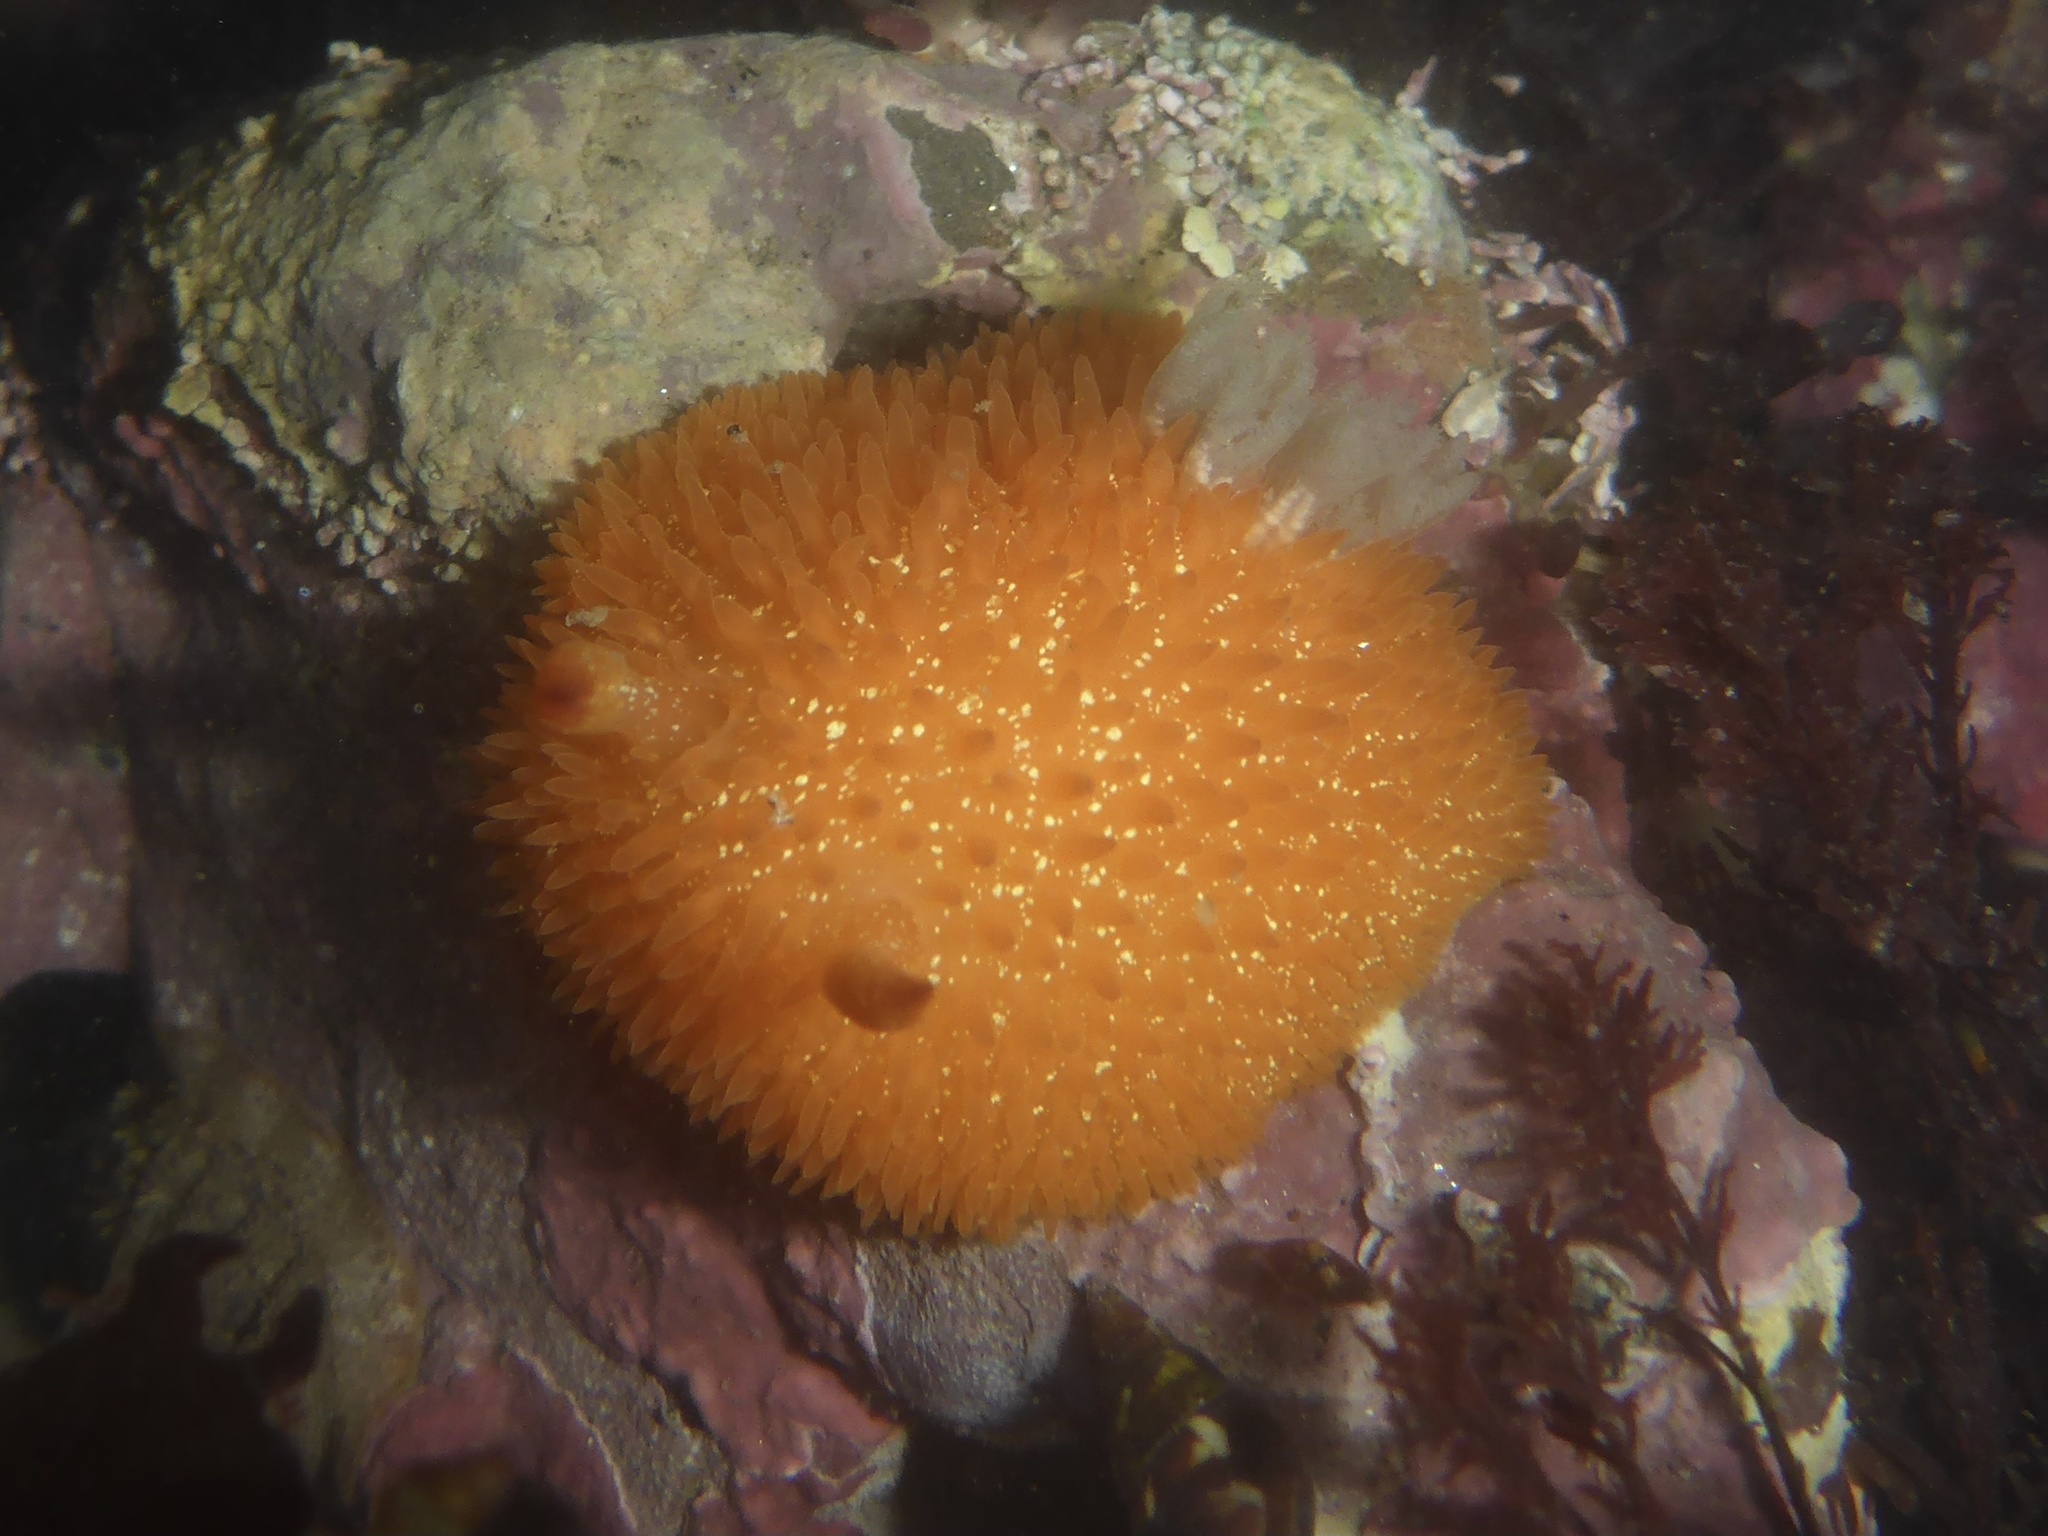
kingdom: Animalia
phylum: Mollusca
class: Gastropoda
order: Nudibranchia
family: Onchidorididae
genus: Acanthodoris
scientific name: Acanthodoris lutea
